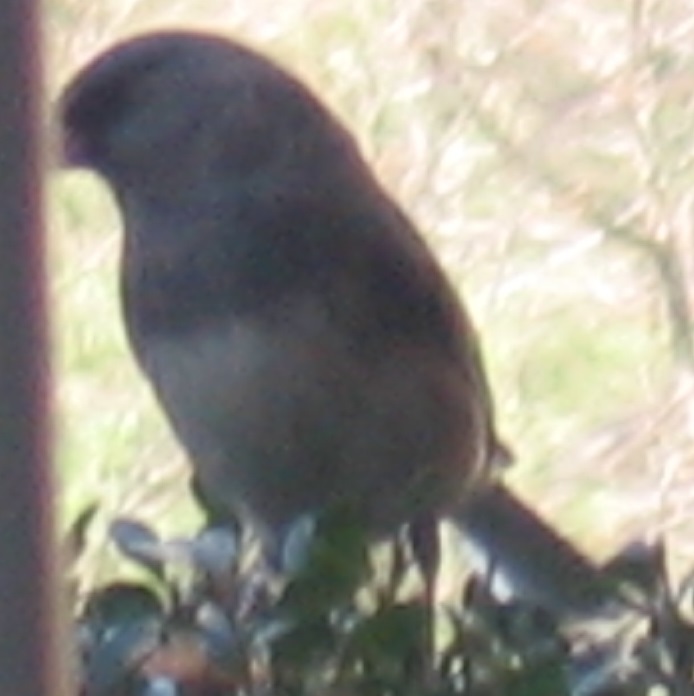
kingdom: Animalia
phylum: Chordata
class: Aves
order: Passeriformes
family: Passerellidae
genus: Junco
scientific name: Junco hyemalis
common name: Dark-eyed junco
